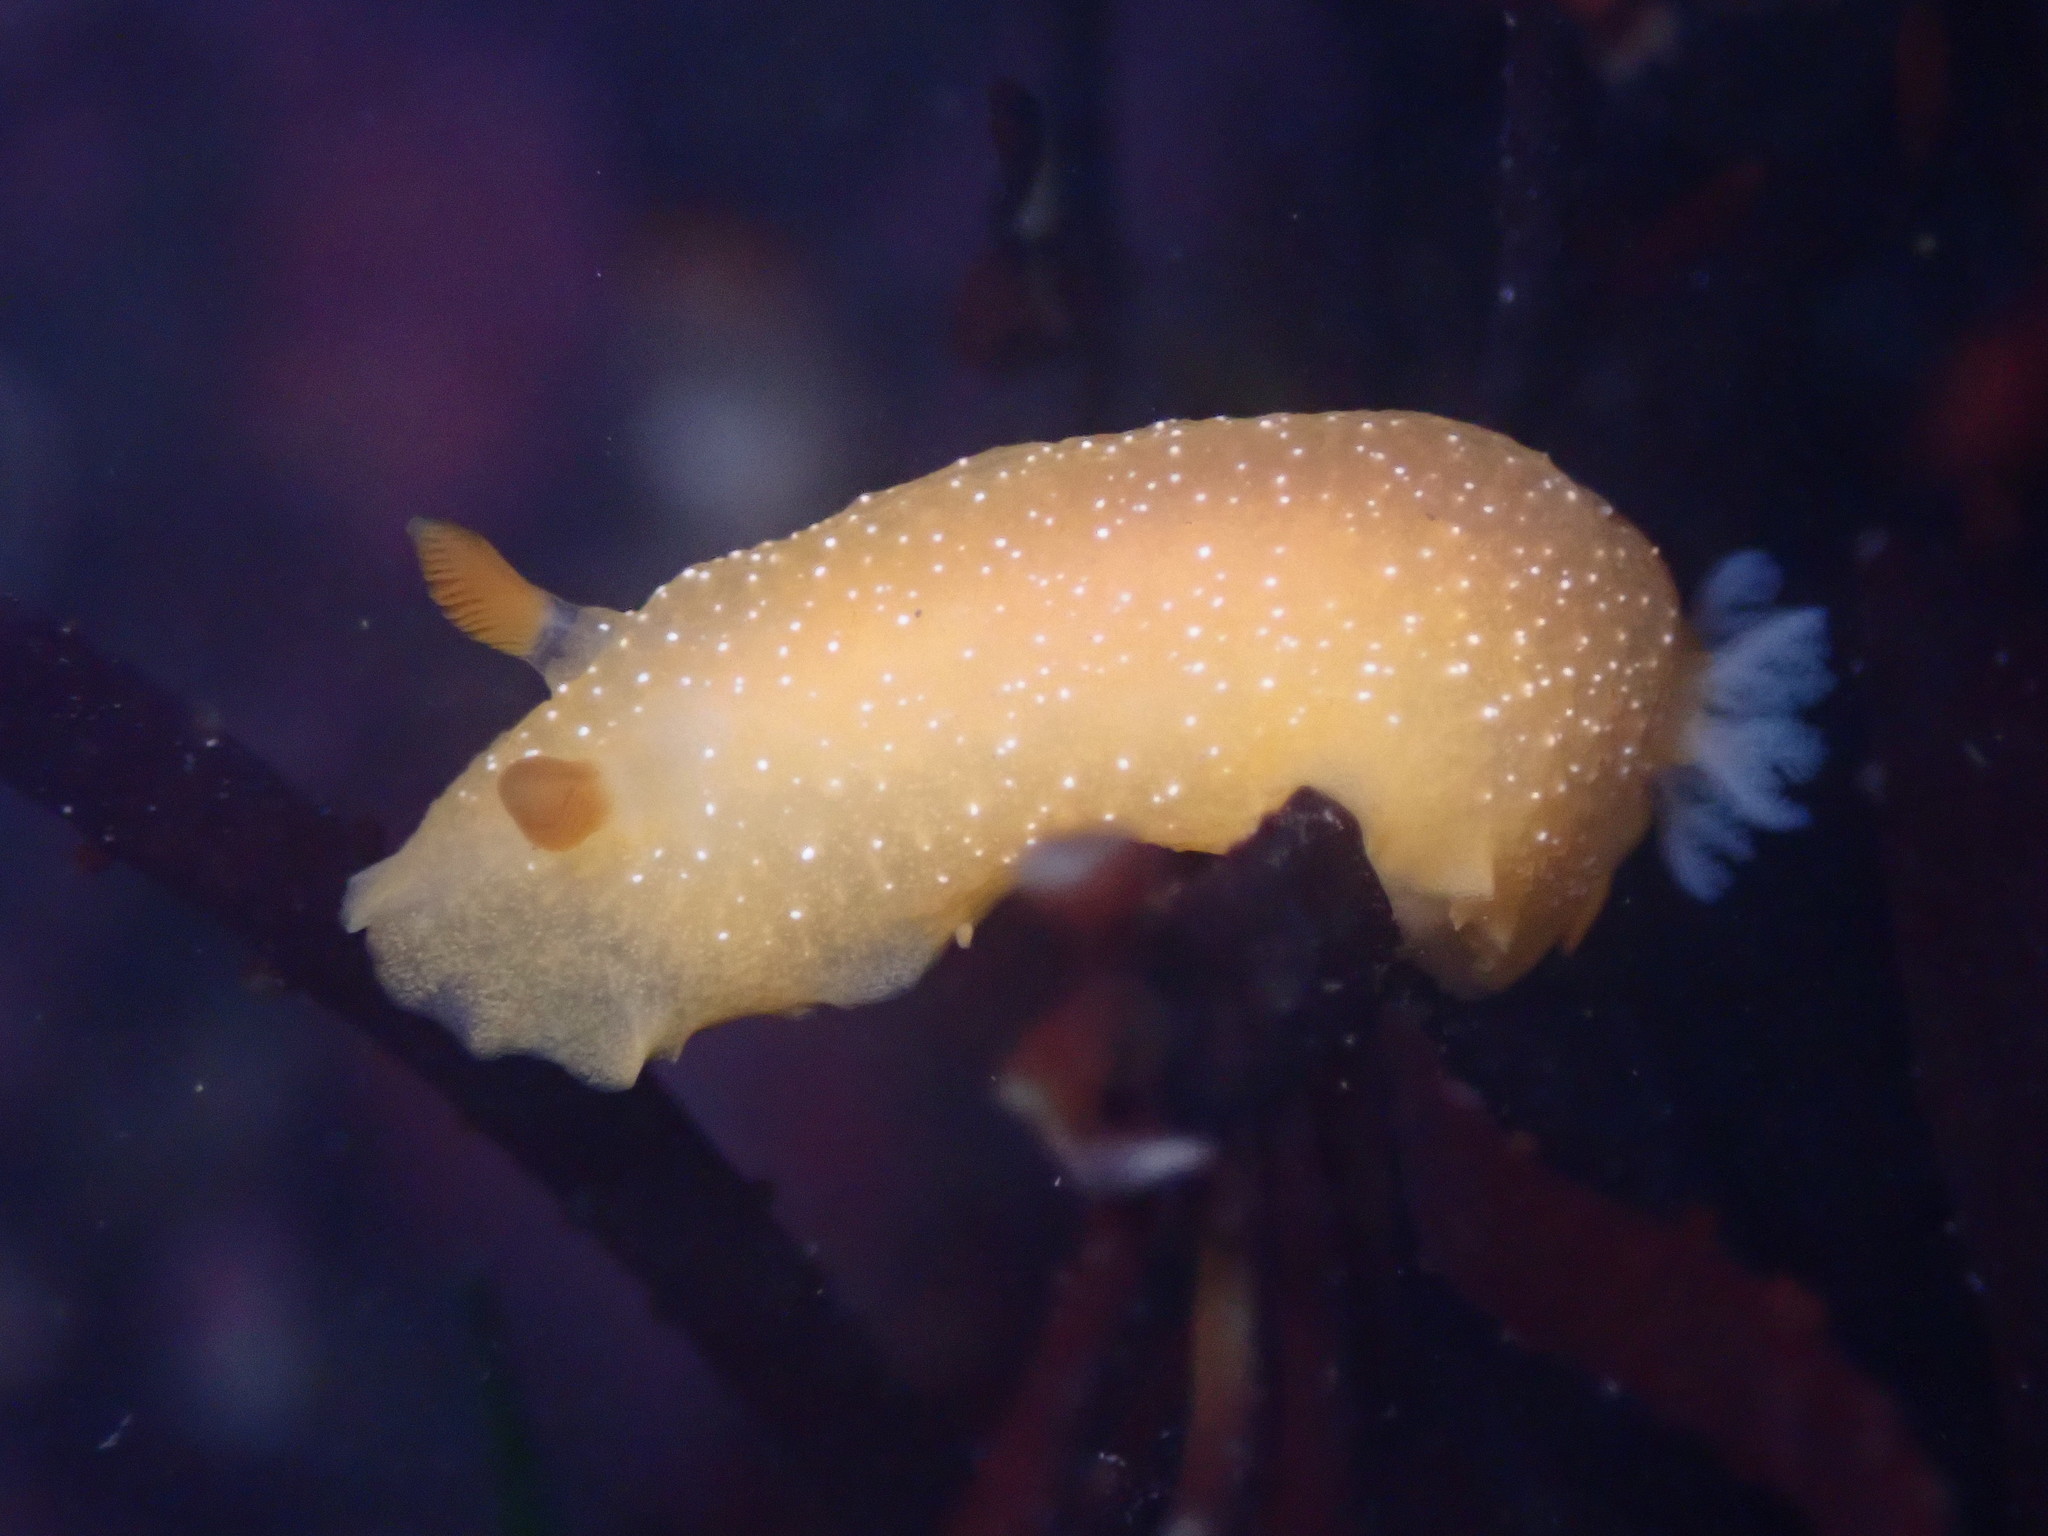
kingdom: Animalia
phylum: Mollusca
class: Gastropoda
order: Nudibranchia
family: Dendrodorididae
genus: Doriopsilla
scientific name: Doriopsilla fulva
